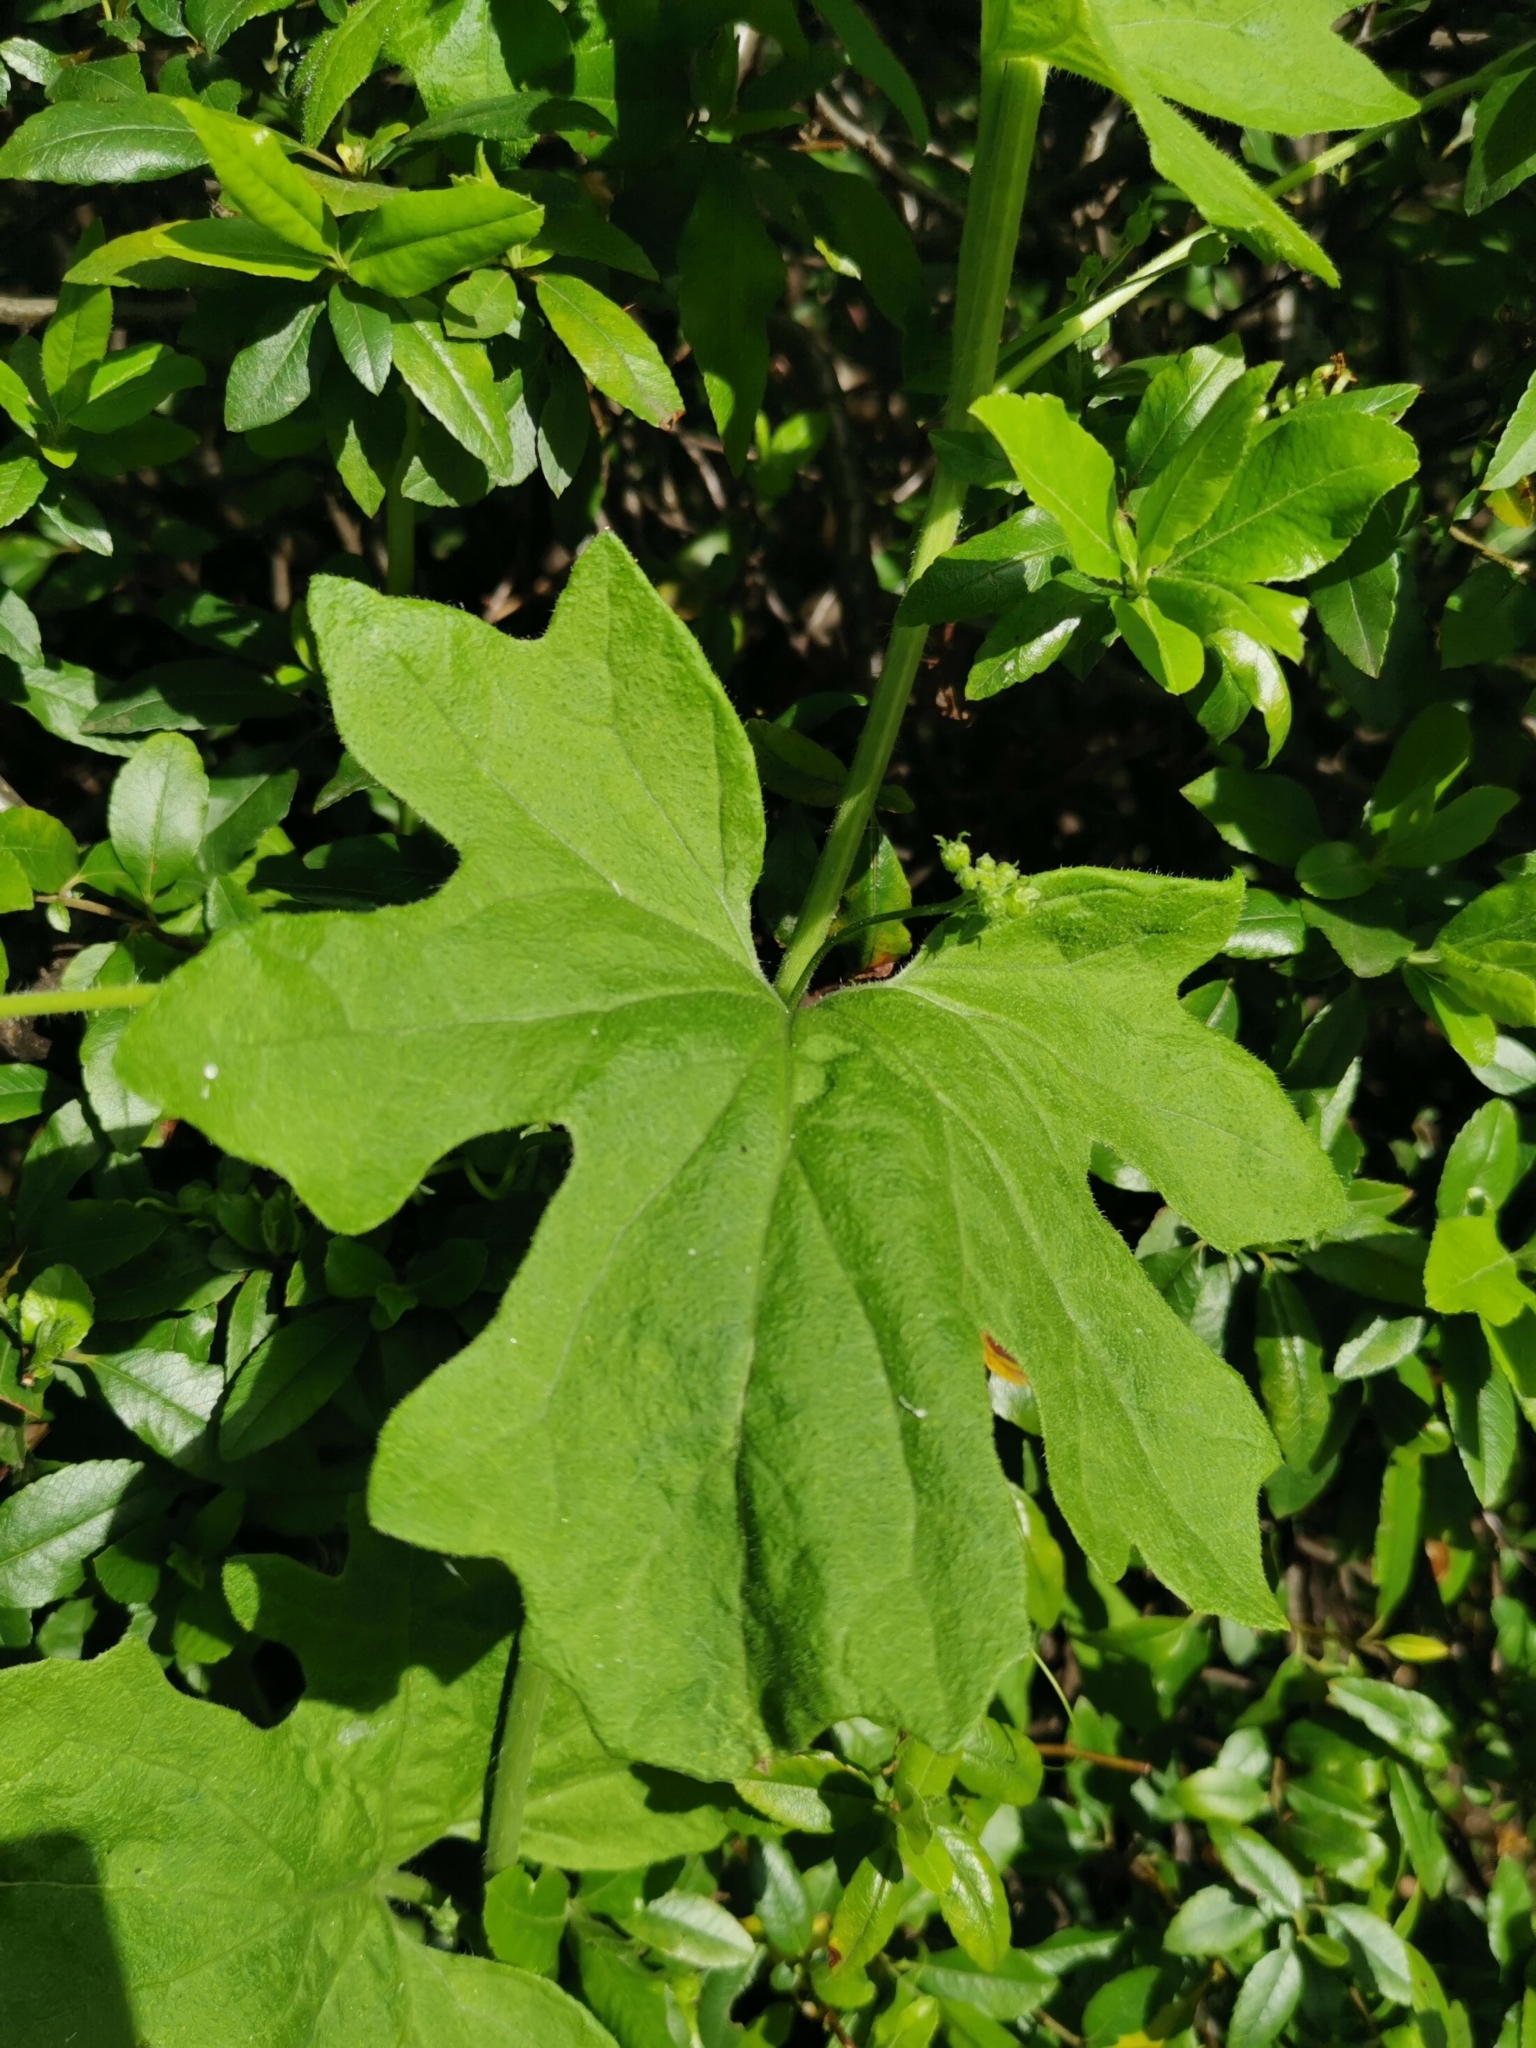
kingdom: Plantae
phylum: Tracheophyta
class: Magnoliopsida
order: Cucurbitales
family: Cucurbitaceae
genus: Bryonia
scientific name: Bryonia cretica
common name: Cretan bryony
